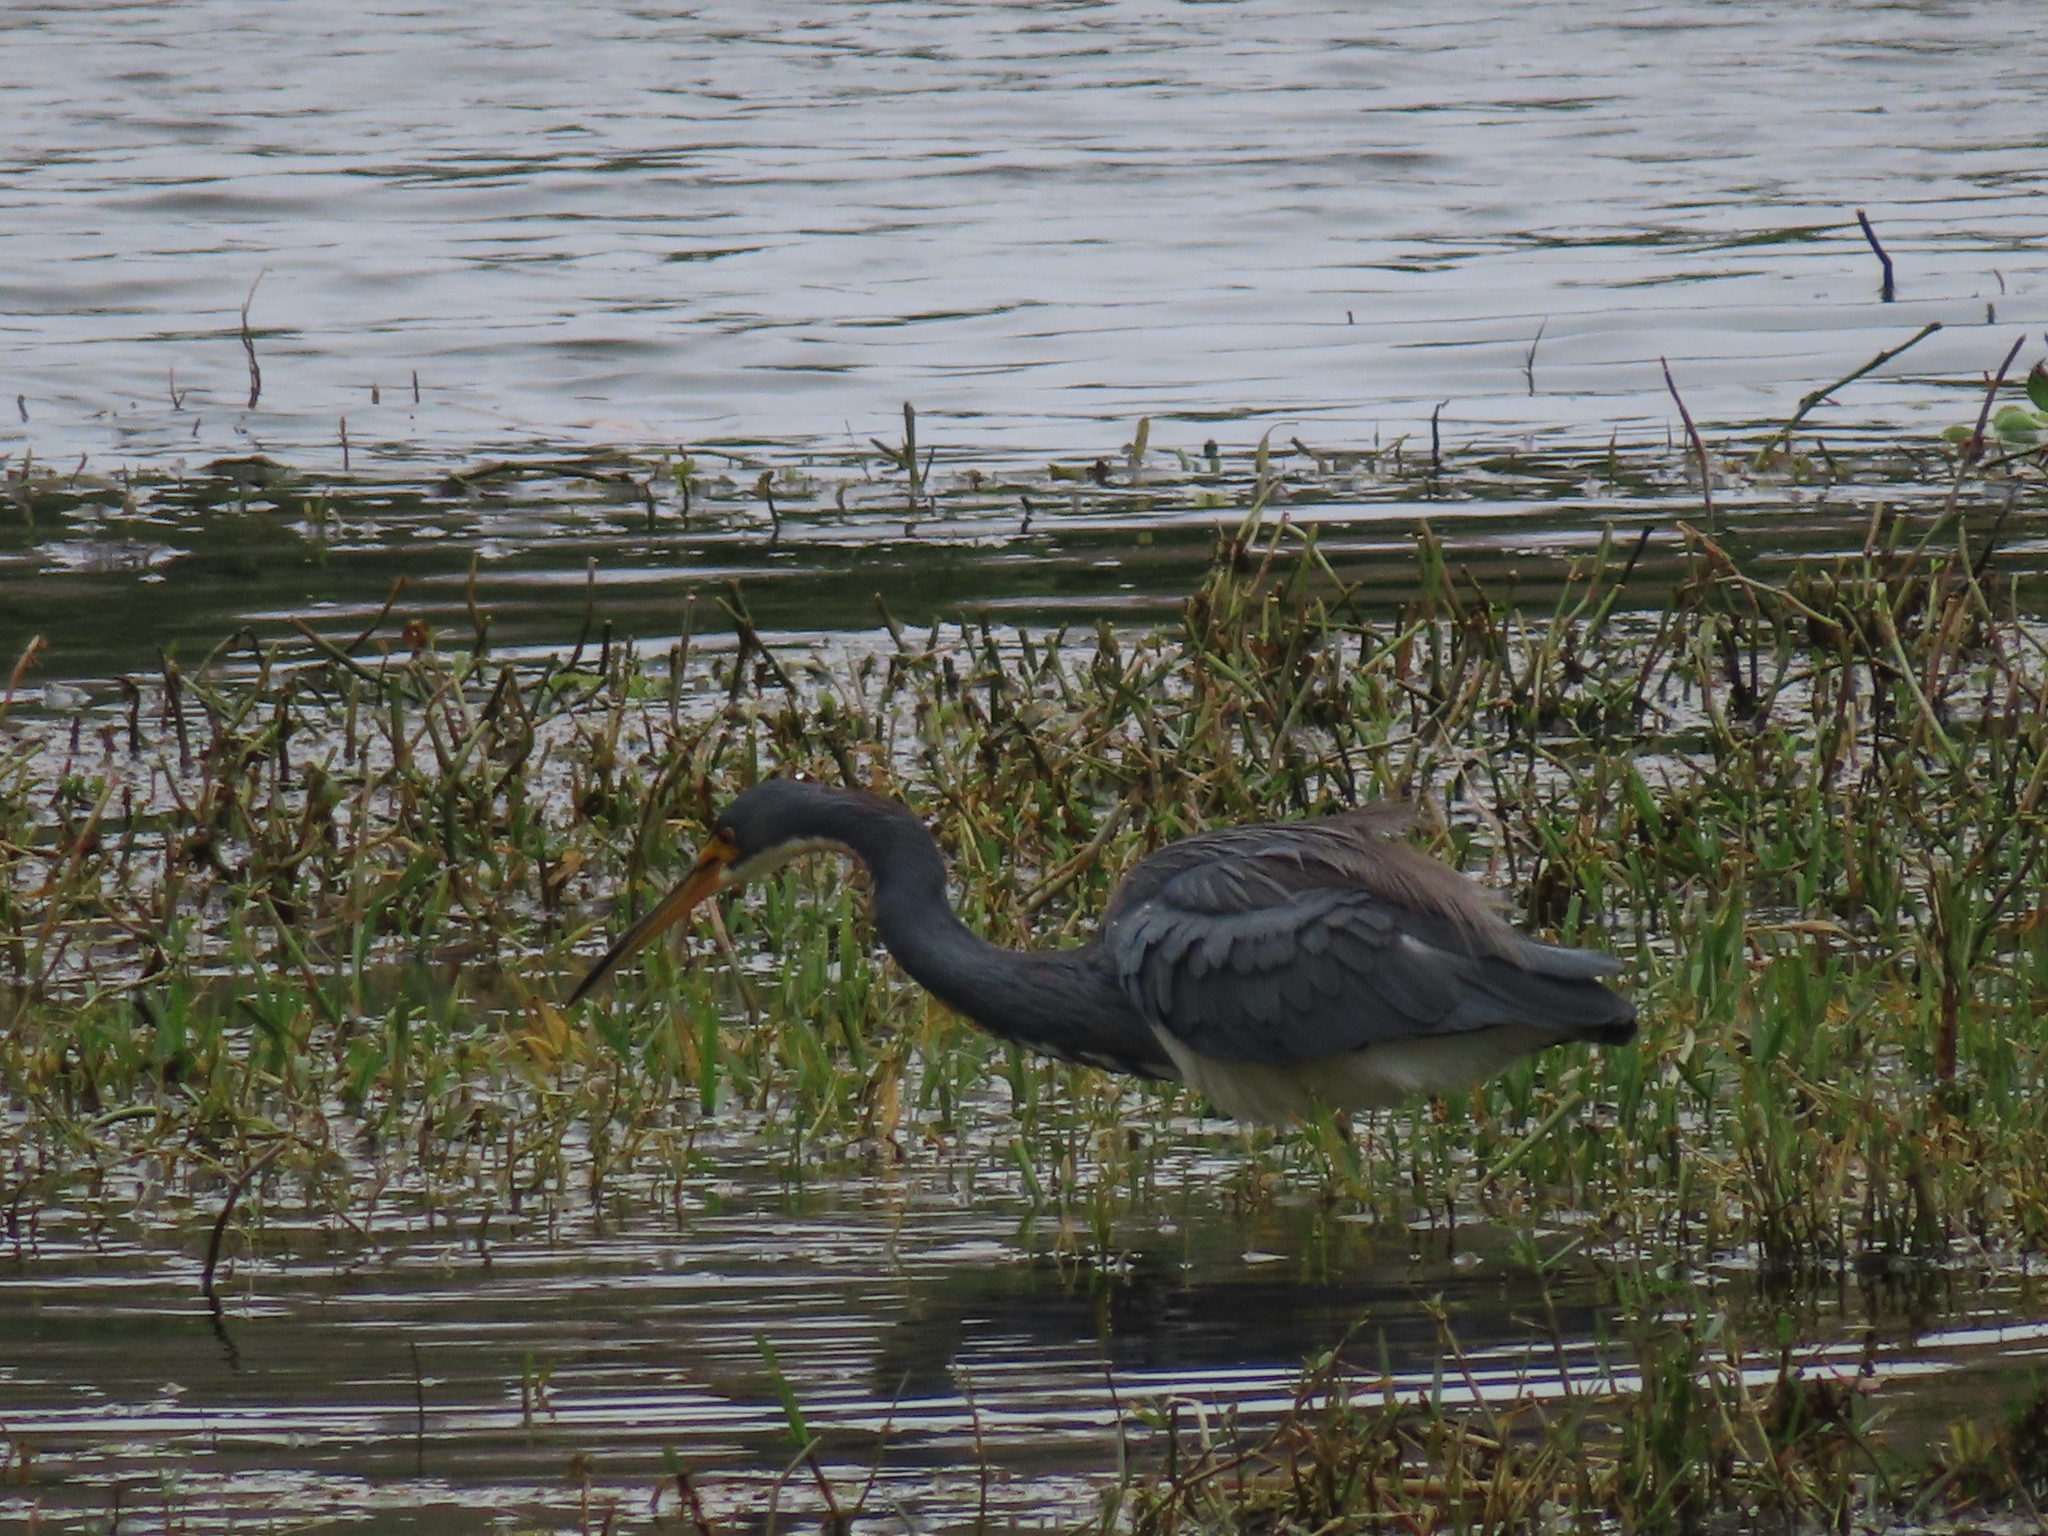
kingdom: Animalia
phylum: Chordata
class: Aves
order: Pelecaniformes
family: Ardeidae
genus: Egretta
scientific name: Egretta tricolor
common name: Tricolored heron
